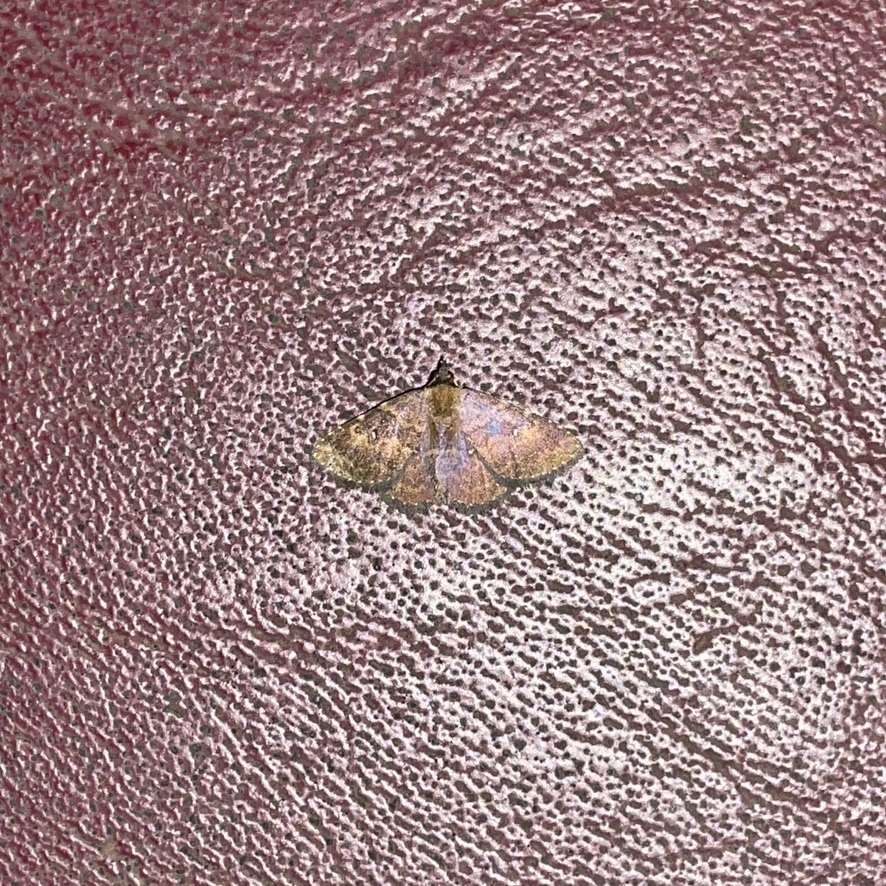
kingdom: Animalia
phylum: Arthropoda
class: Insecta
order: Lepidoptera
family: Erebidae
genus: Ostha
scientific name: Ostha coryphata
